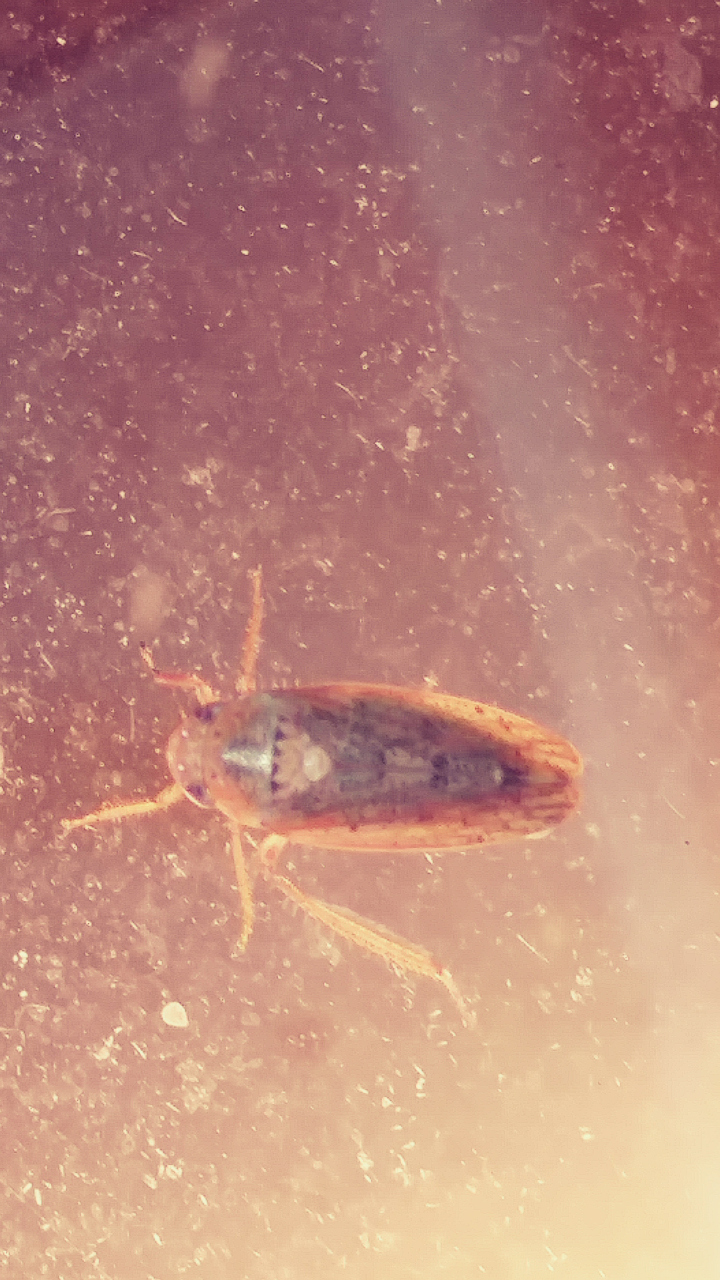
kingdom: Animalia
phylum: Arthropoda
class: Insecta
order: Hemiptera
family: Cicadellidae
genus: Ponana
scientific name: Ponana puncticollis
